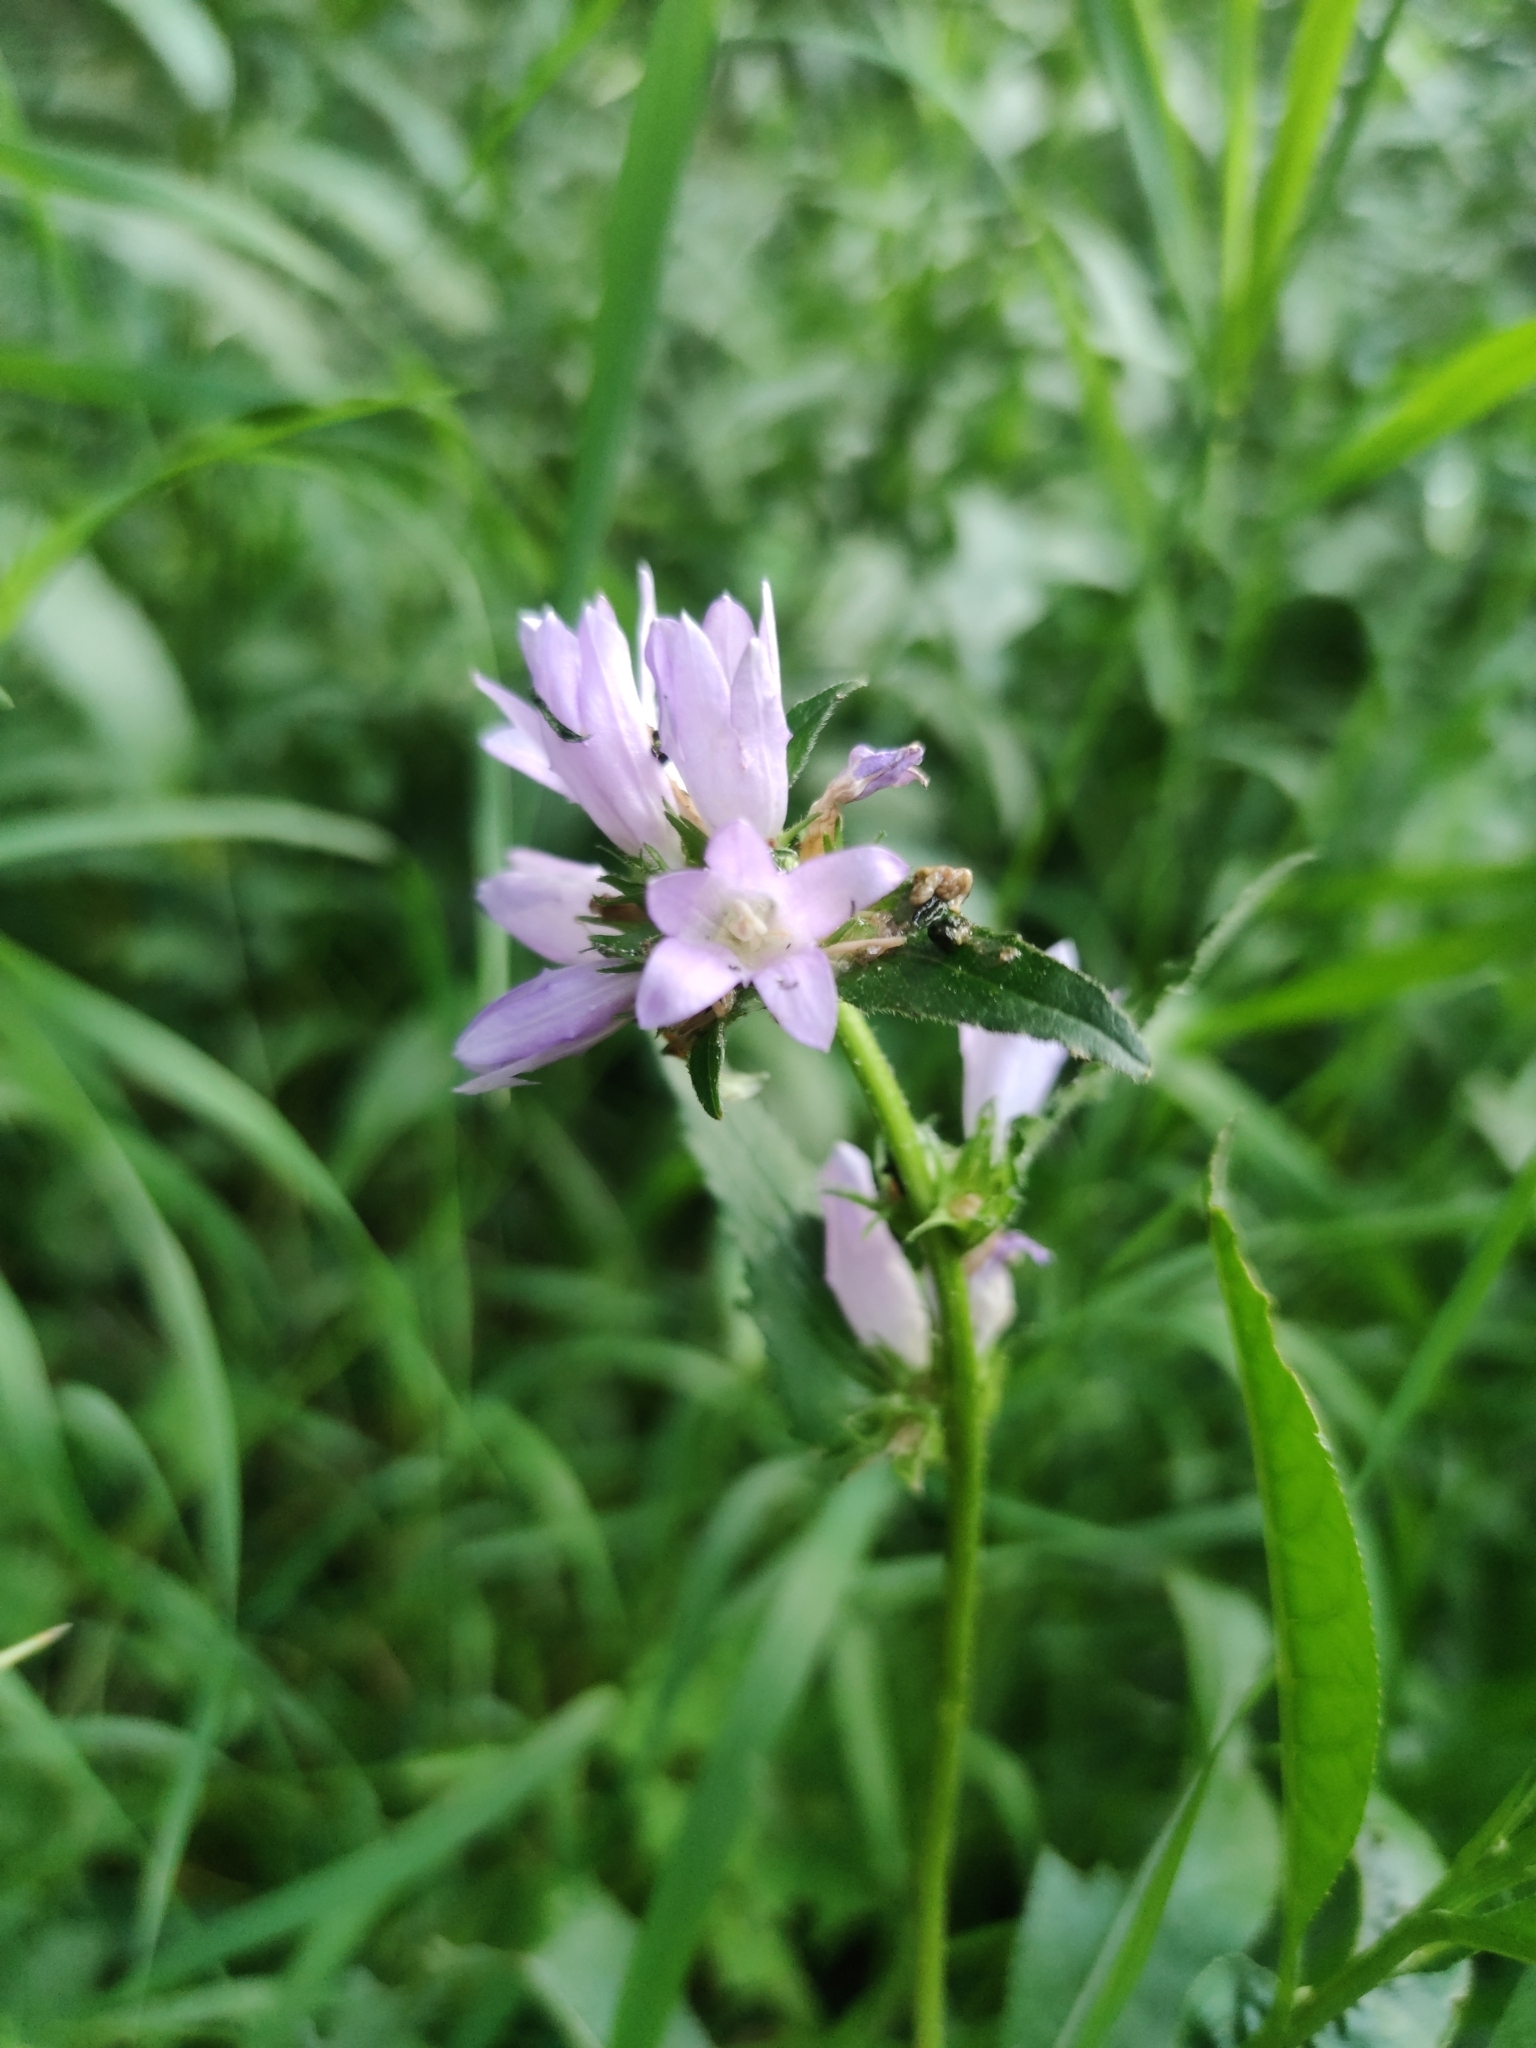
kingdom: Plantae
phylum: Tracheophyta
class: Magnoliopsida
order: Asterales
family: Campanulaceae
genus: Campanula
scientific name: Campanula glomerata
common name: Clustered bellflower
